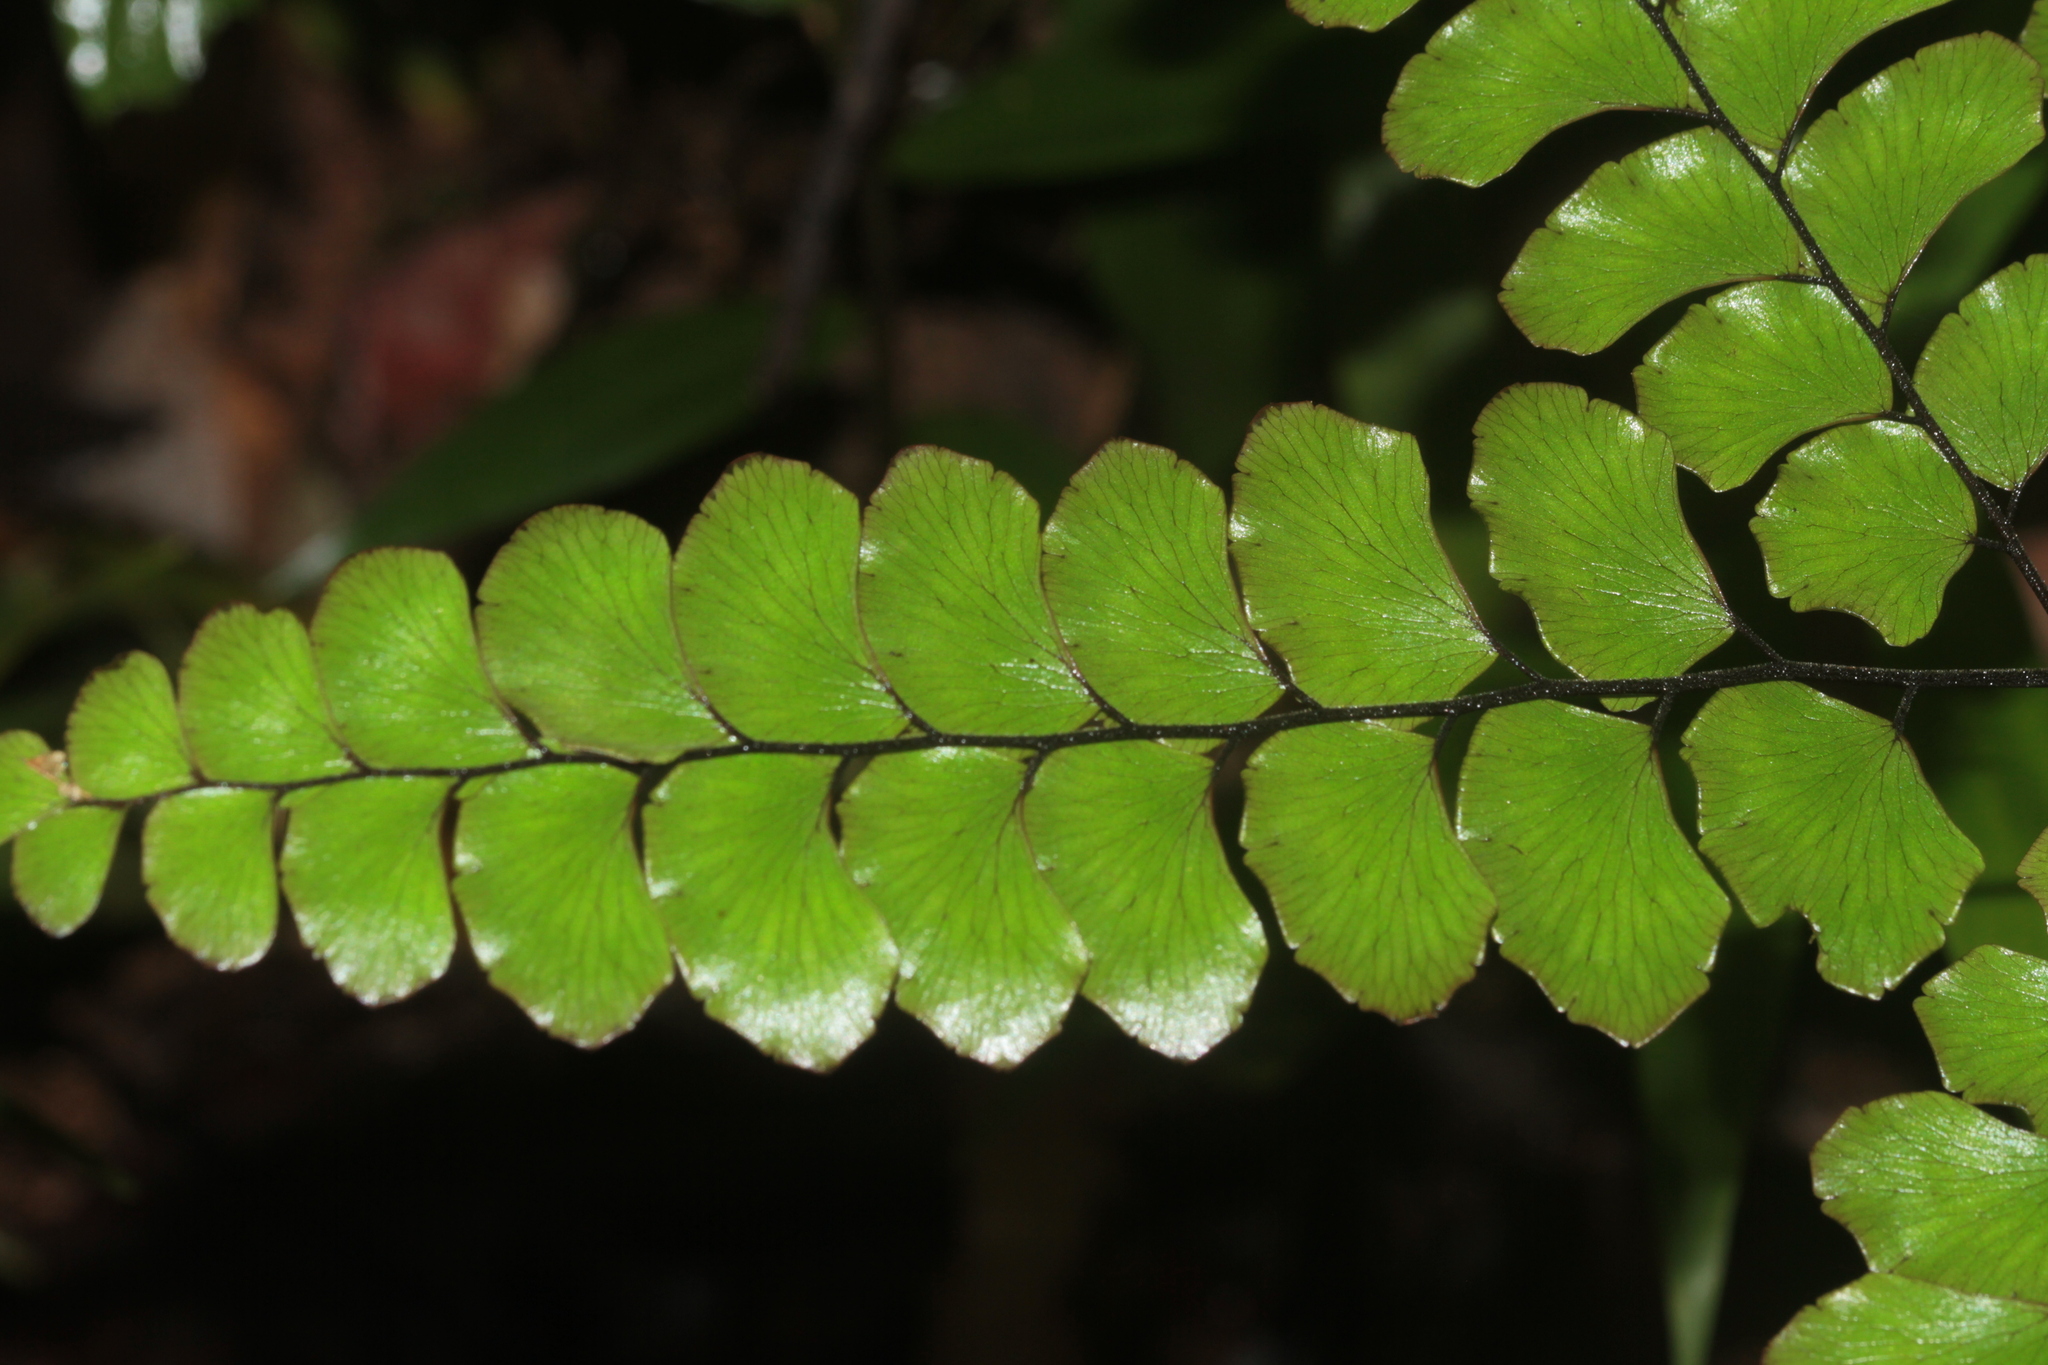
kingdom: Plantae
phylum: Tracheophyta
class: Polypodiopsida
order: Polypodiales
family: Pteridaceae
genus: Adiantum
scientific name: Adiantum leprieurii
